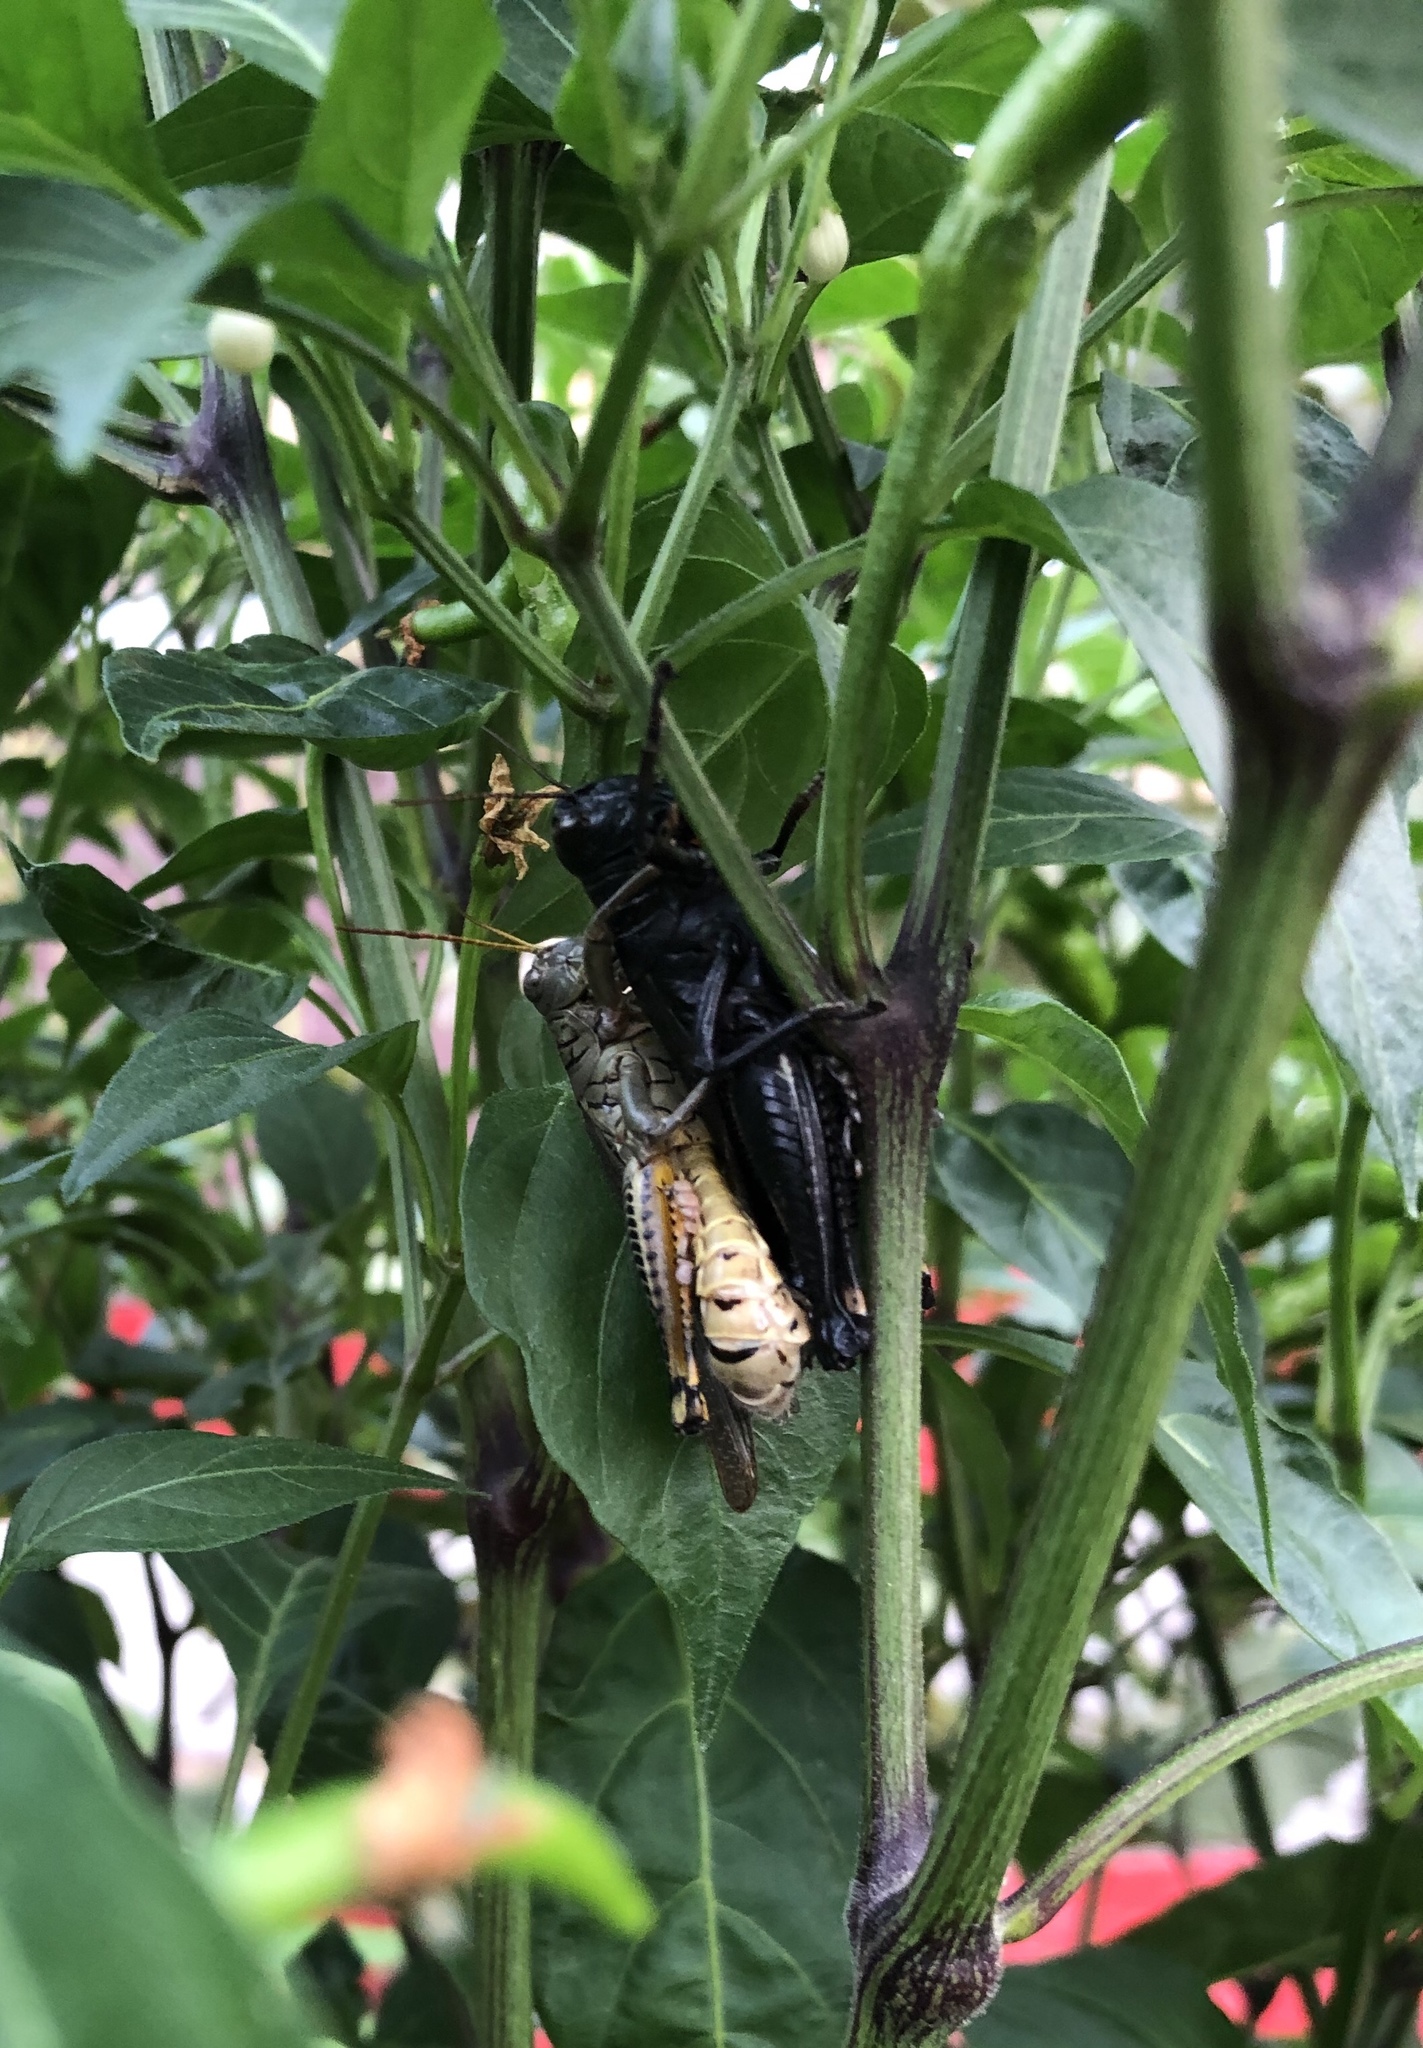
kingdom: Animalia
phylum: Arthropoda
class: Insecta
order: Orthoptera
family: Acrididae
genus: Melanoplus
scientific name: Melanoplus differentialis
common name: Differential grasshopper
